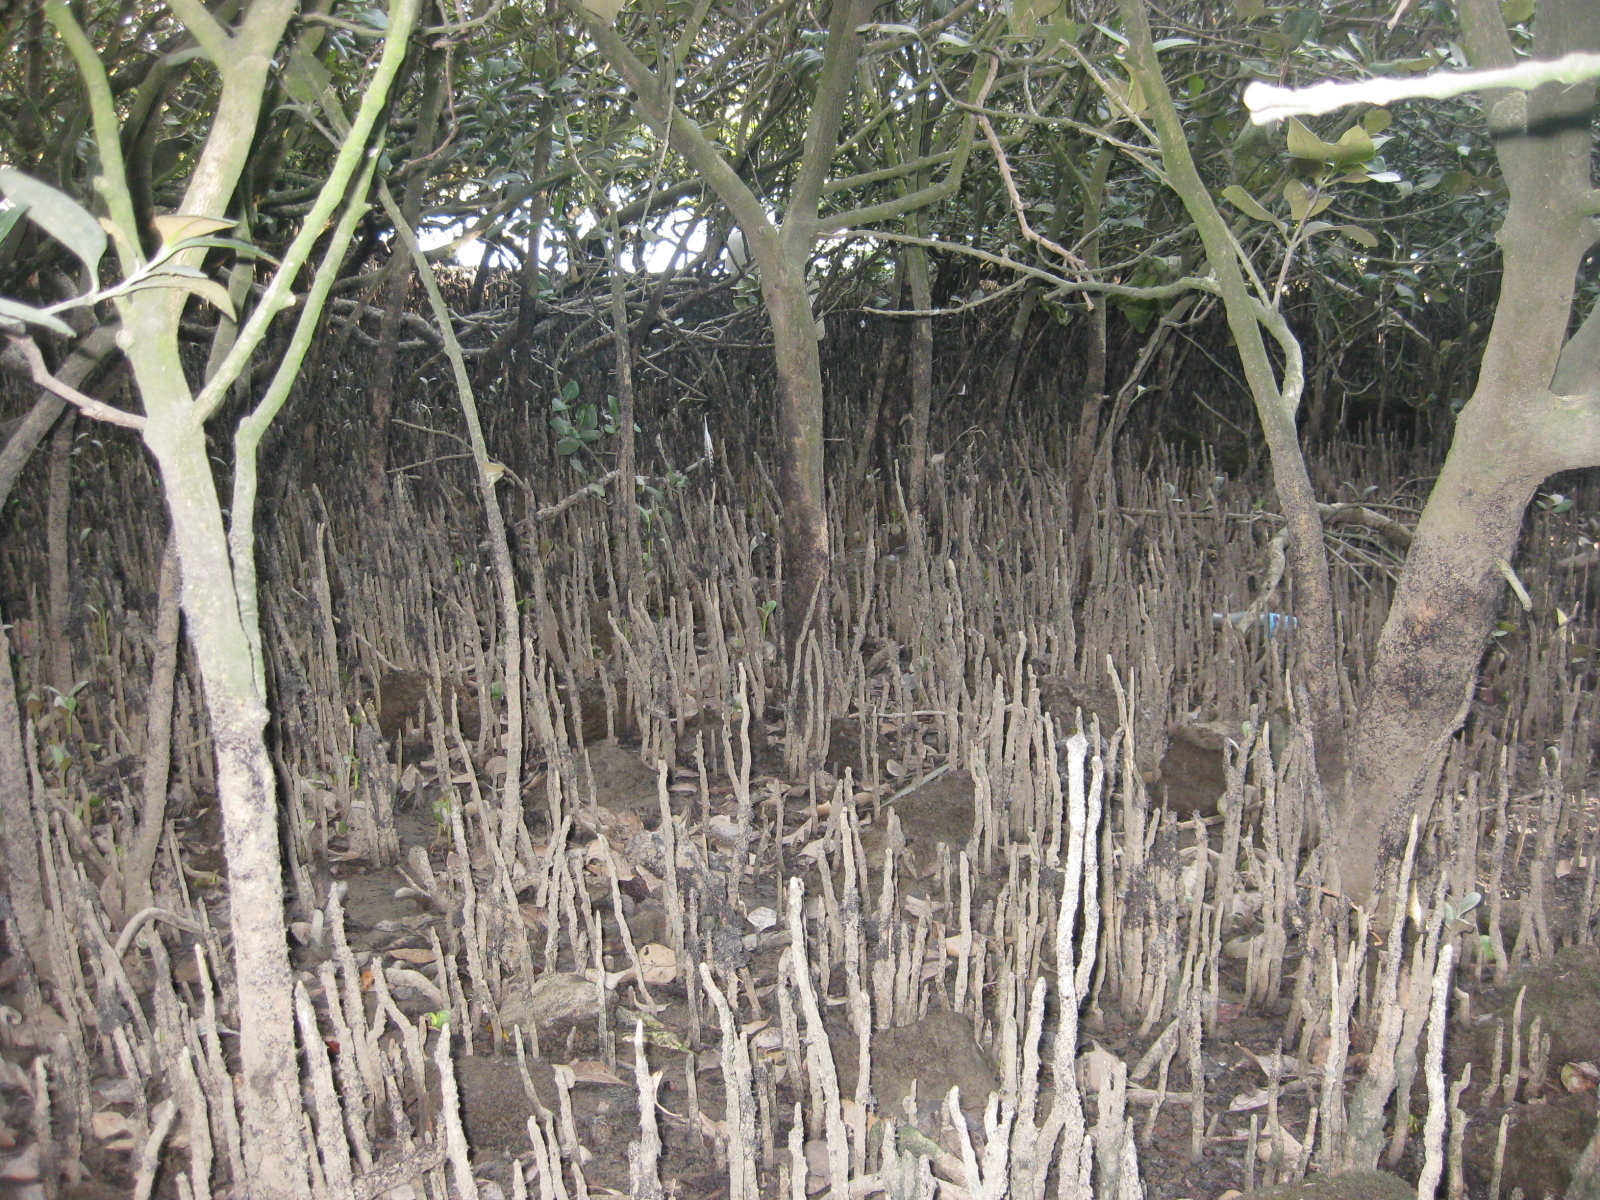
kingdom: Plantae
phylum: Tracheophyta
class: Magnoliopsida
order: Lamiales
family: Acanthaceae
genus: Avicennia
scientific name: Avicennia marina
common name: Gray mangrove
